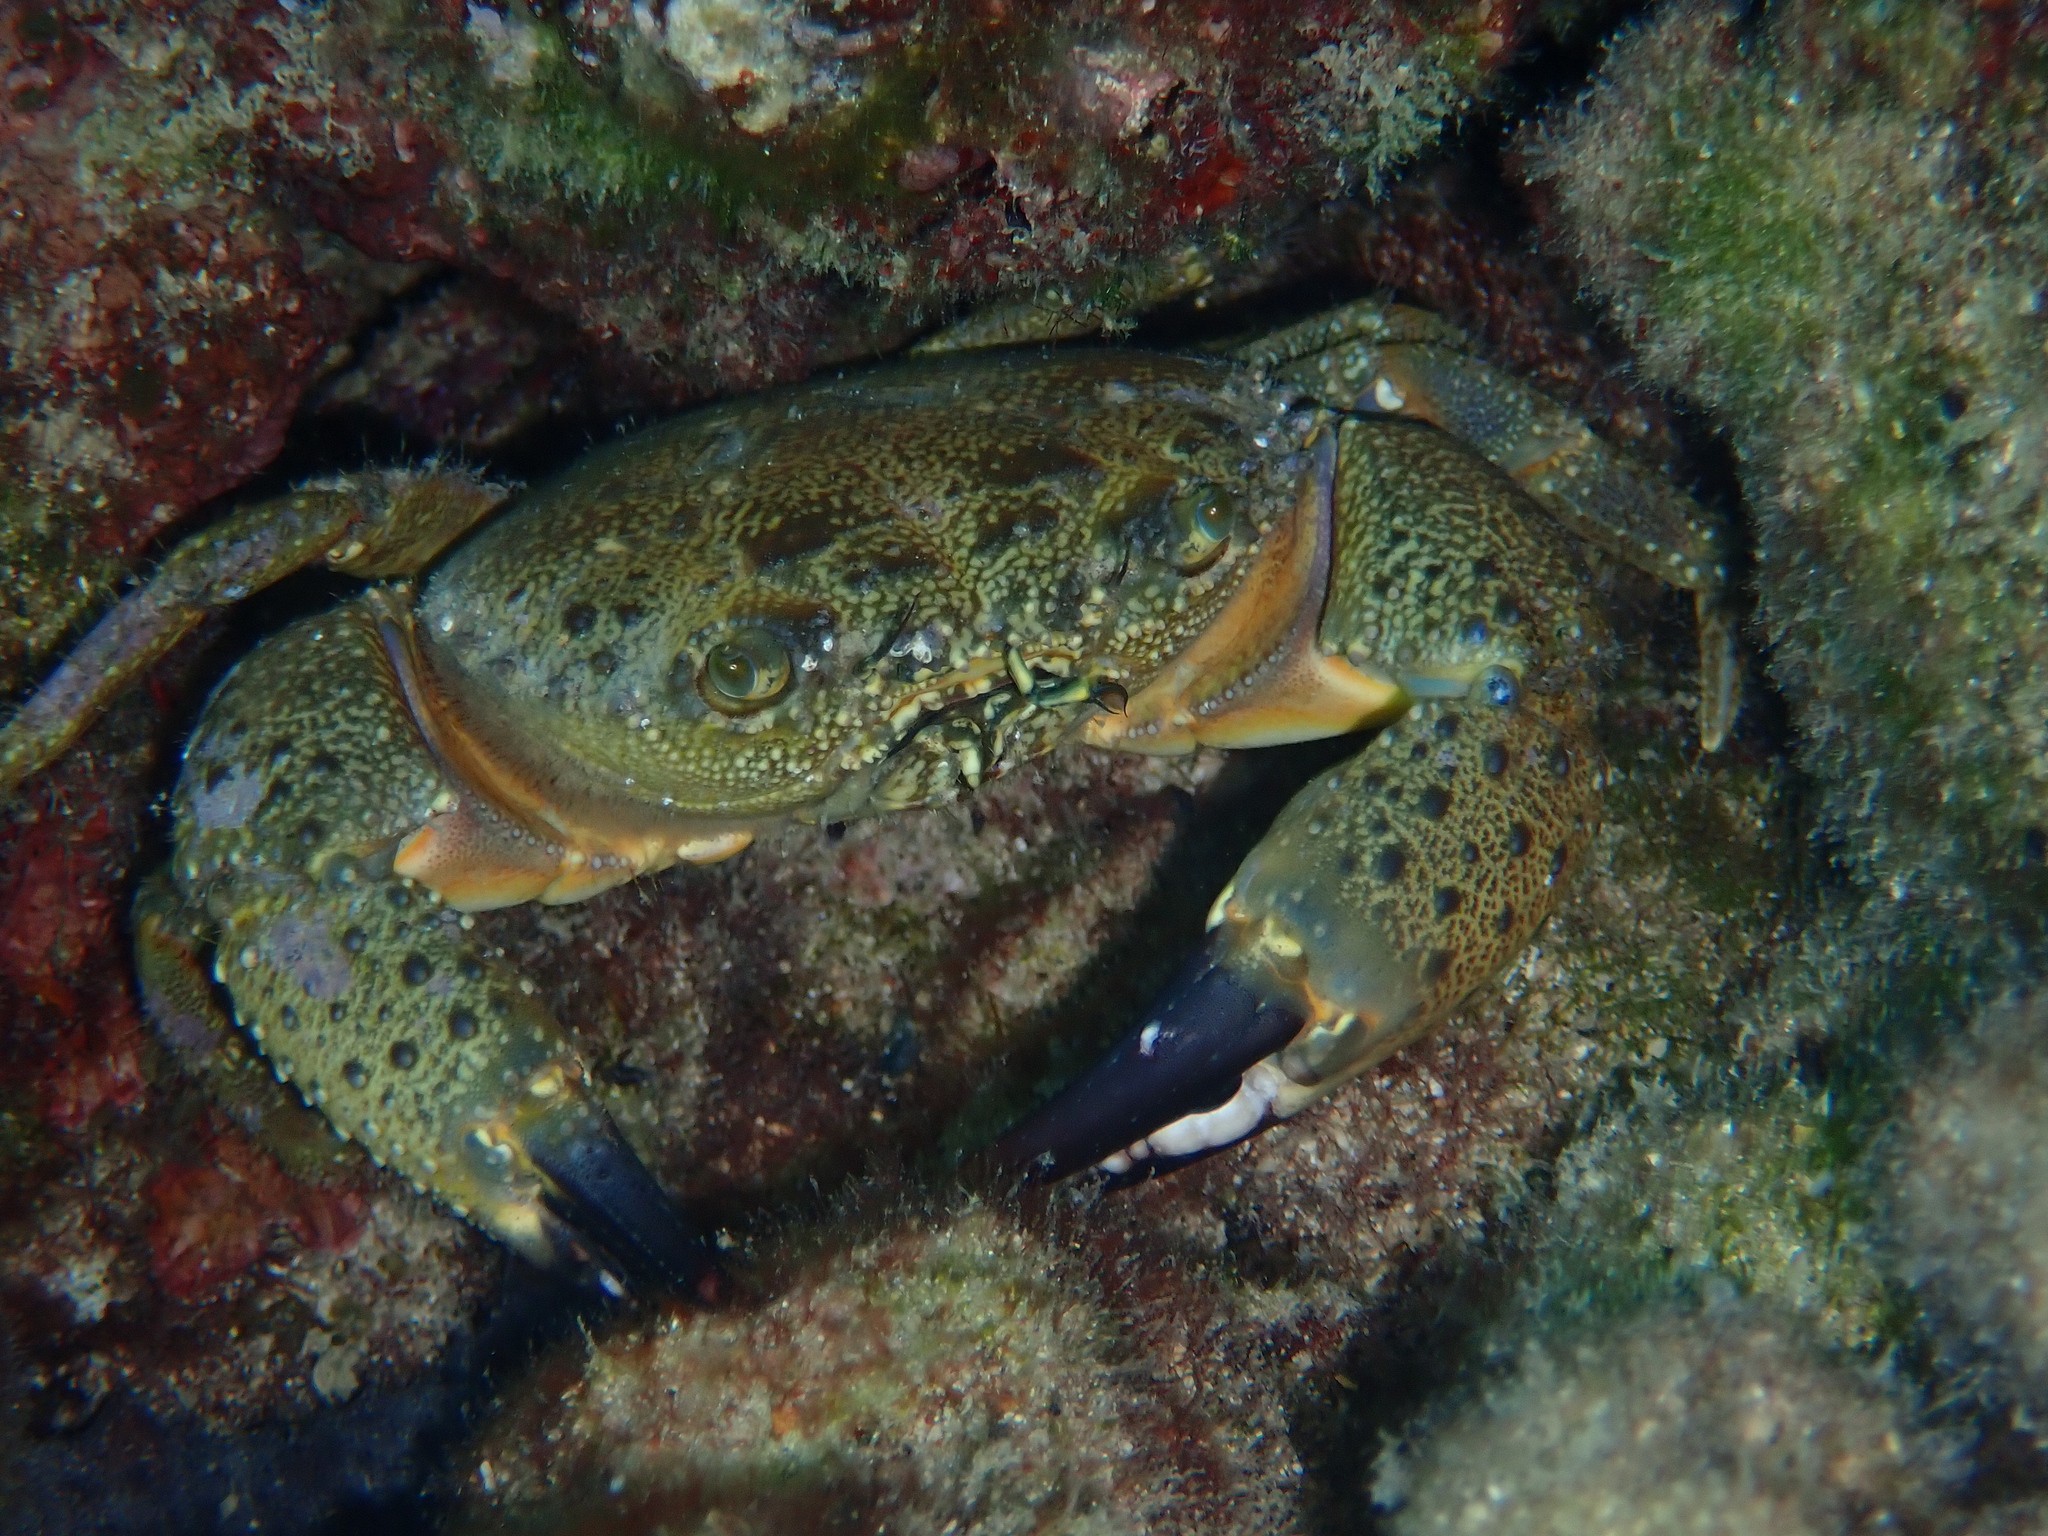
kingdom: Animalia
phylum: Arthropoda
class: Malacostraca
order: Decapoda
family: Eriphiidae
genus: Eriphia
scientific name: Eriphia verrucosa
